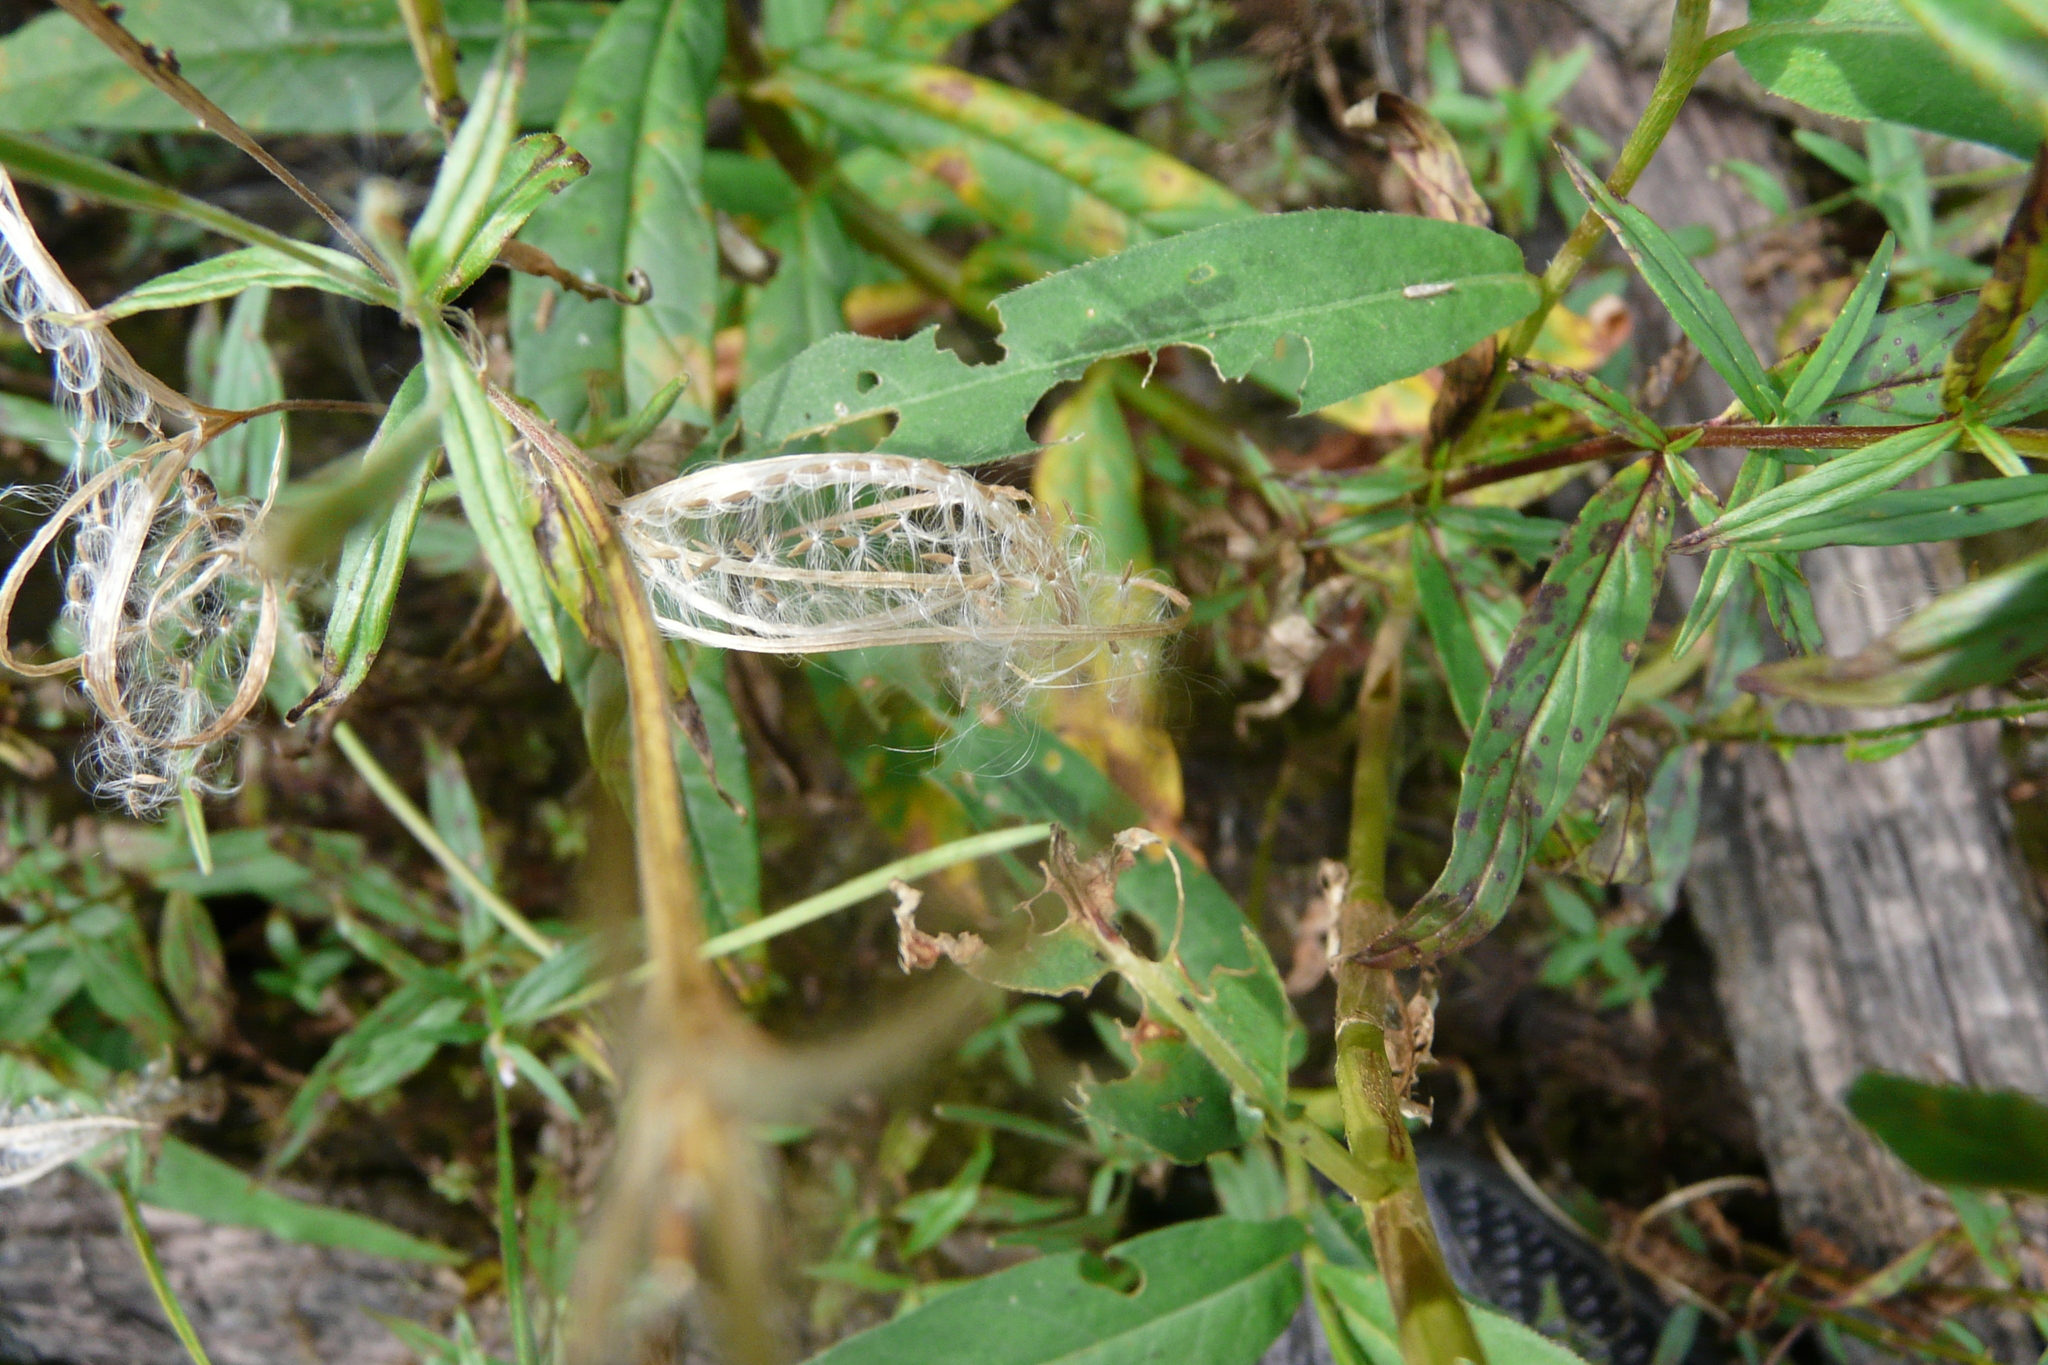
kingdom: Plantae
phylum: Tracheophyta
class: Magnoliopsida
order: Myrtales
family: Onagraceae
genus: Epilobium
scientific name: Epilobium palustre
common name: Marsh willowherb
